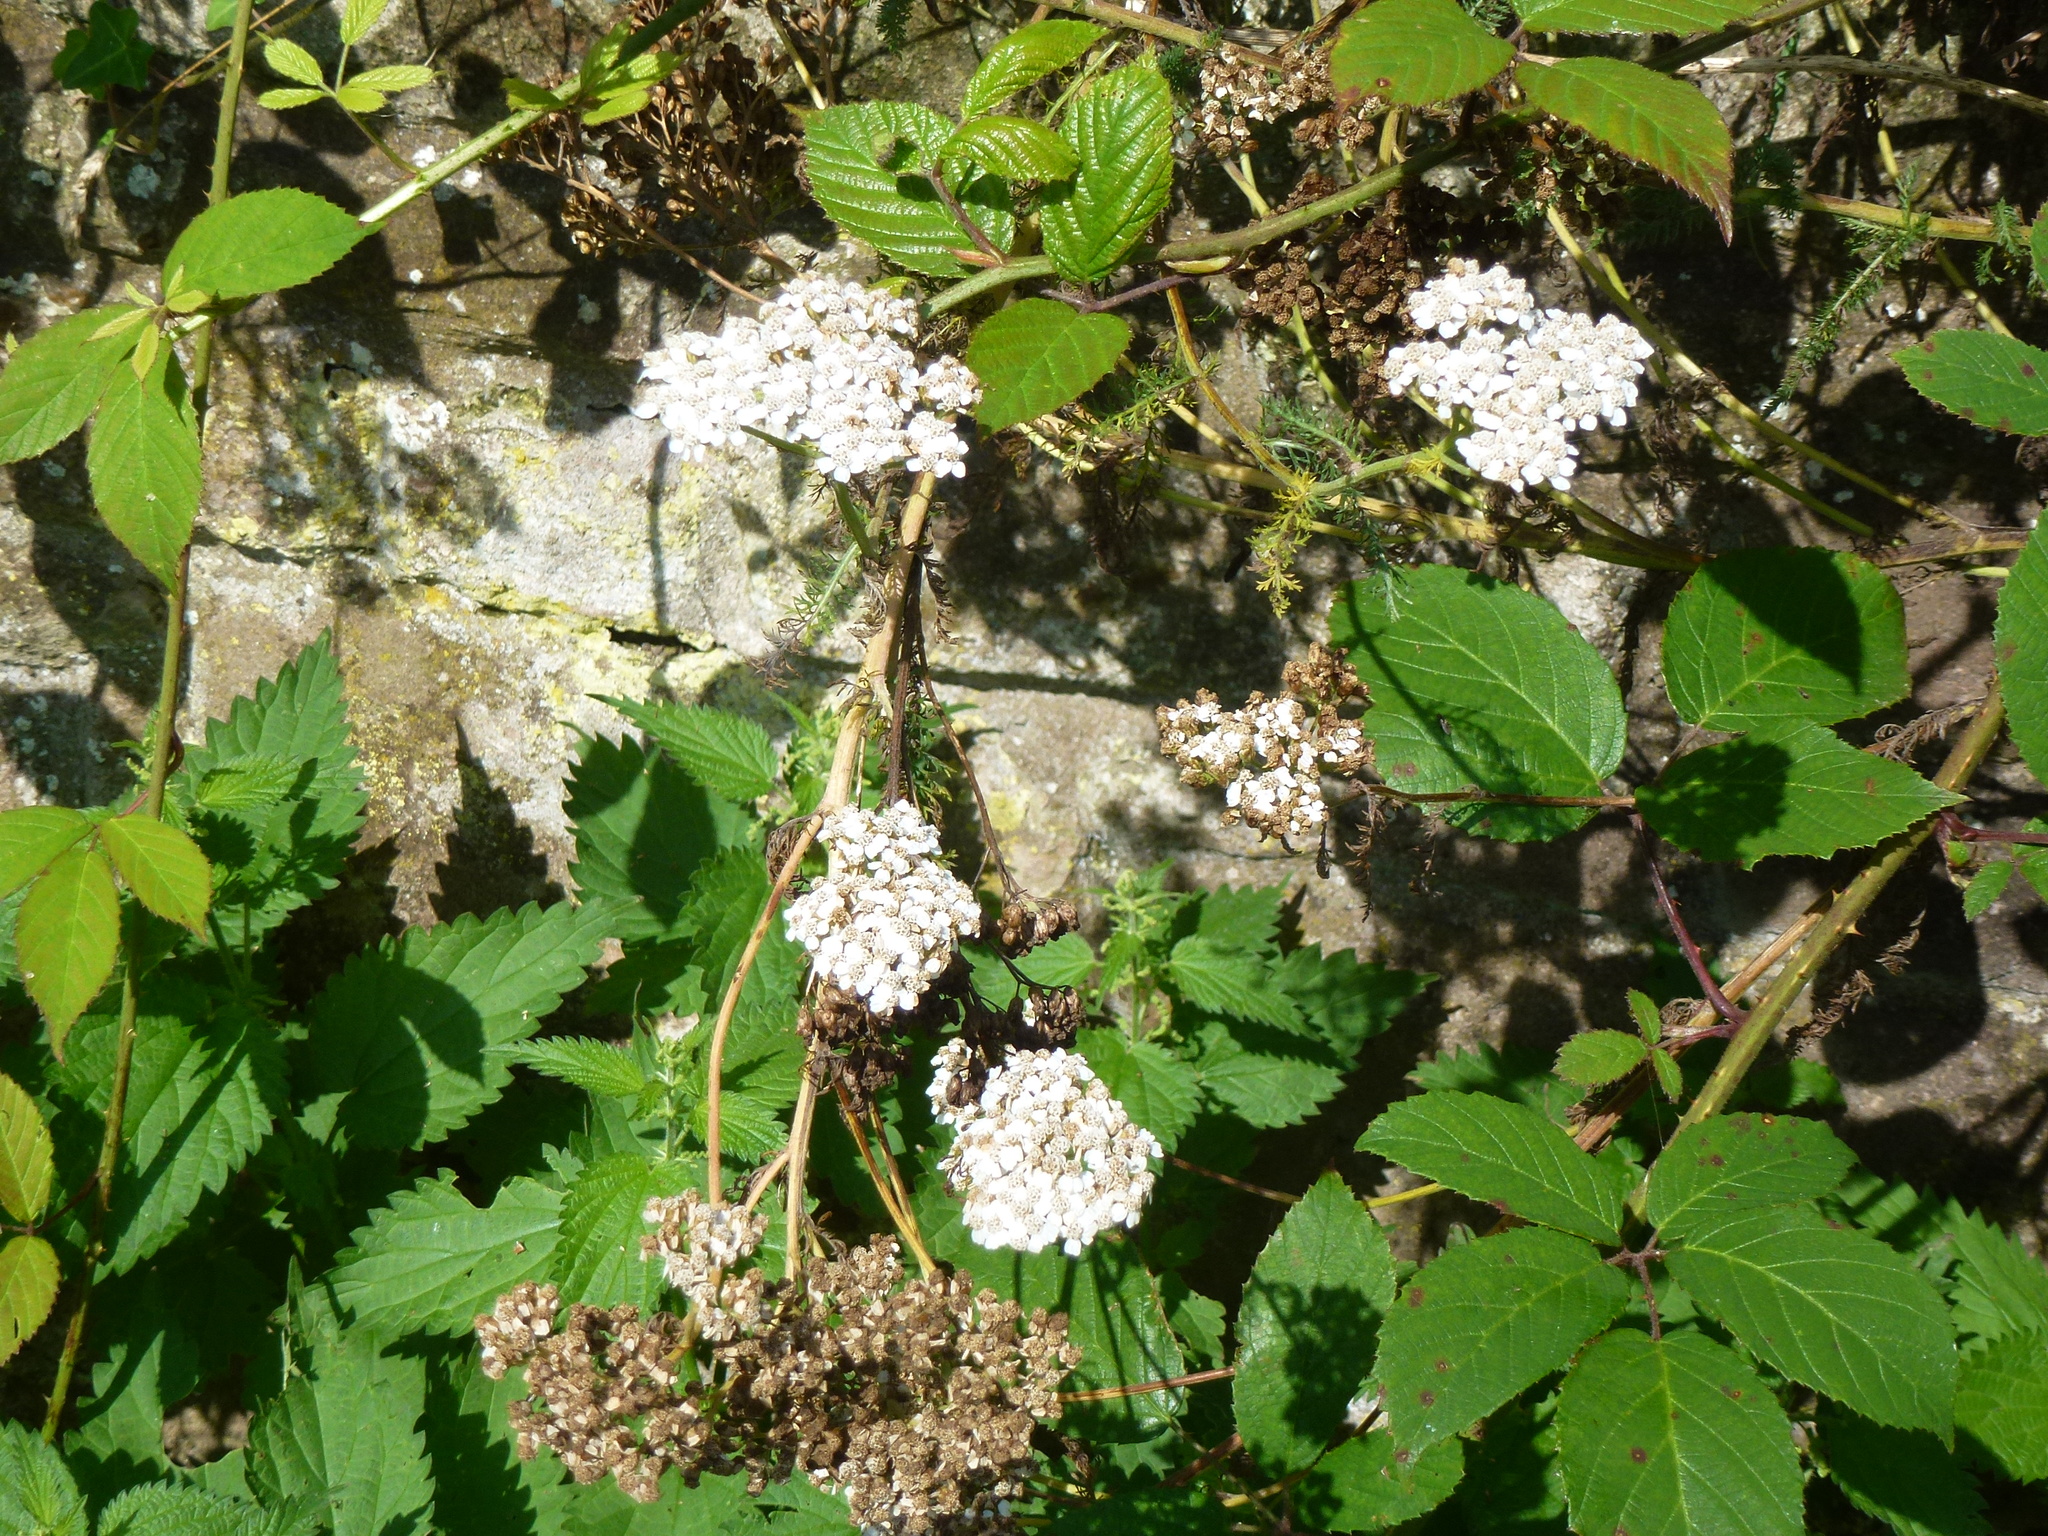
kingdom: Plantae
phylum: Tracheophyta
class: Magnoliopsida
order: Asterales
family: Asteraceae
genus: Achillea
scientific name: Achillea millefolium
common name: Yarrow
